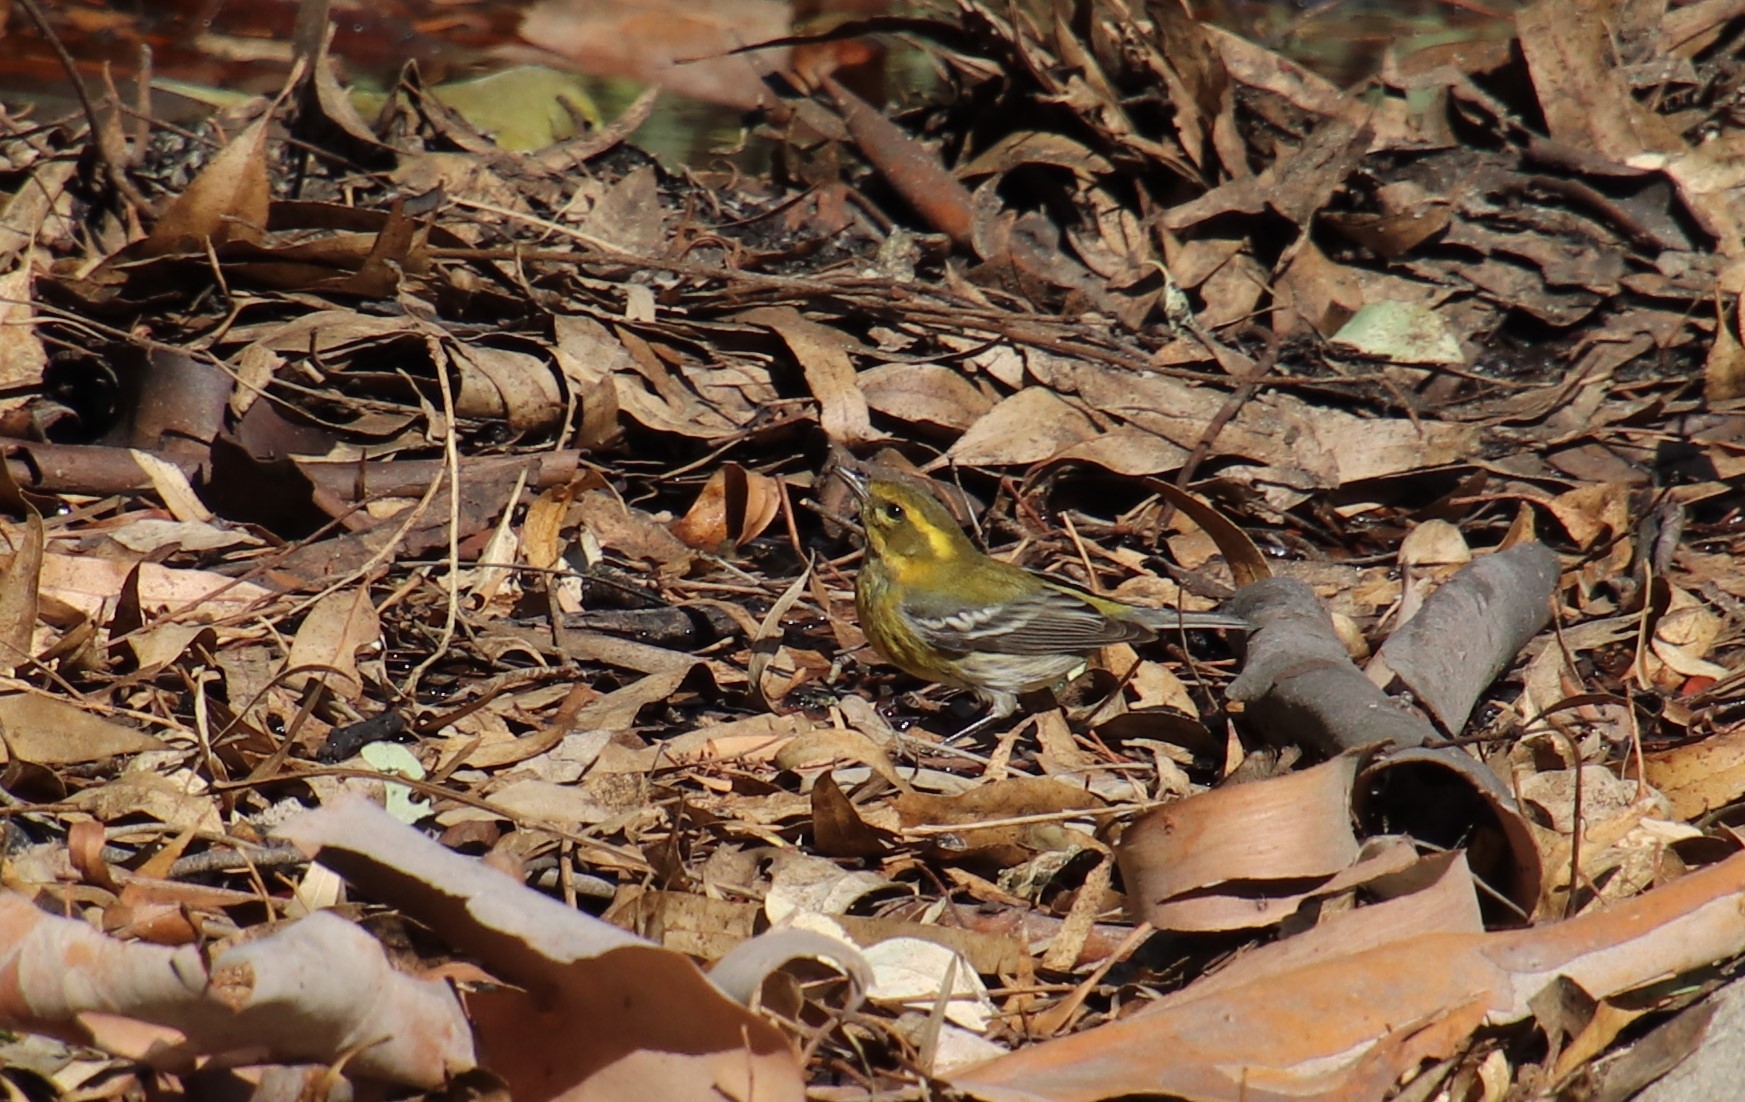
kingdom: Animalia
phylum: Chordata
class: Aves
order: Passeriformes
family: Parulidae
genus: Setophaga
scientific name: Setophaga townsendi
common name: Townsend's warbler
